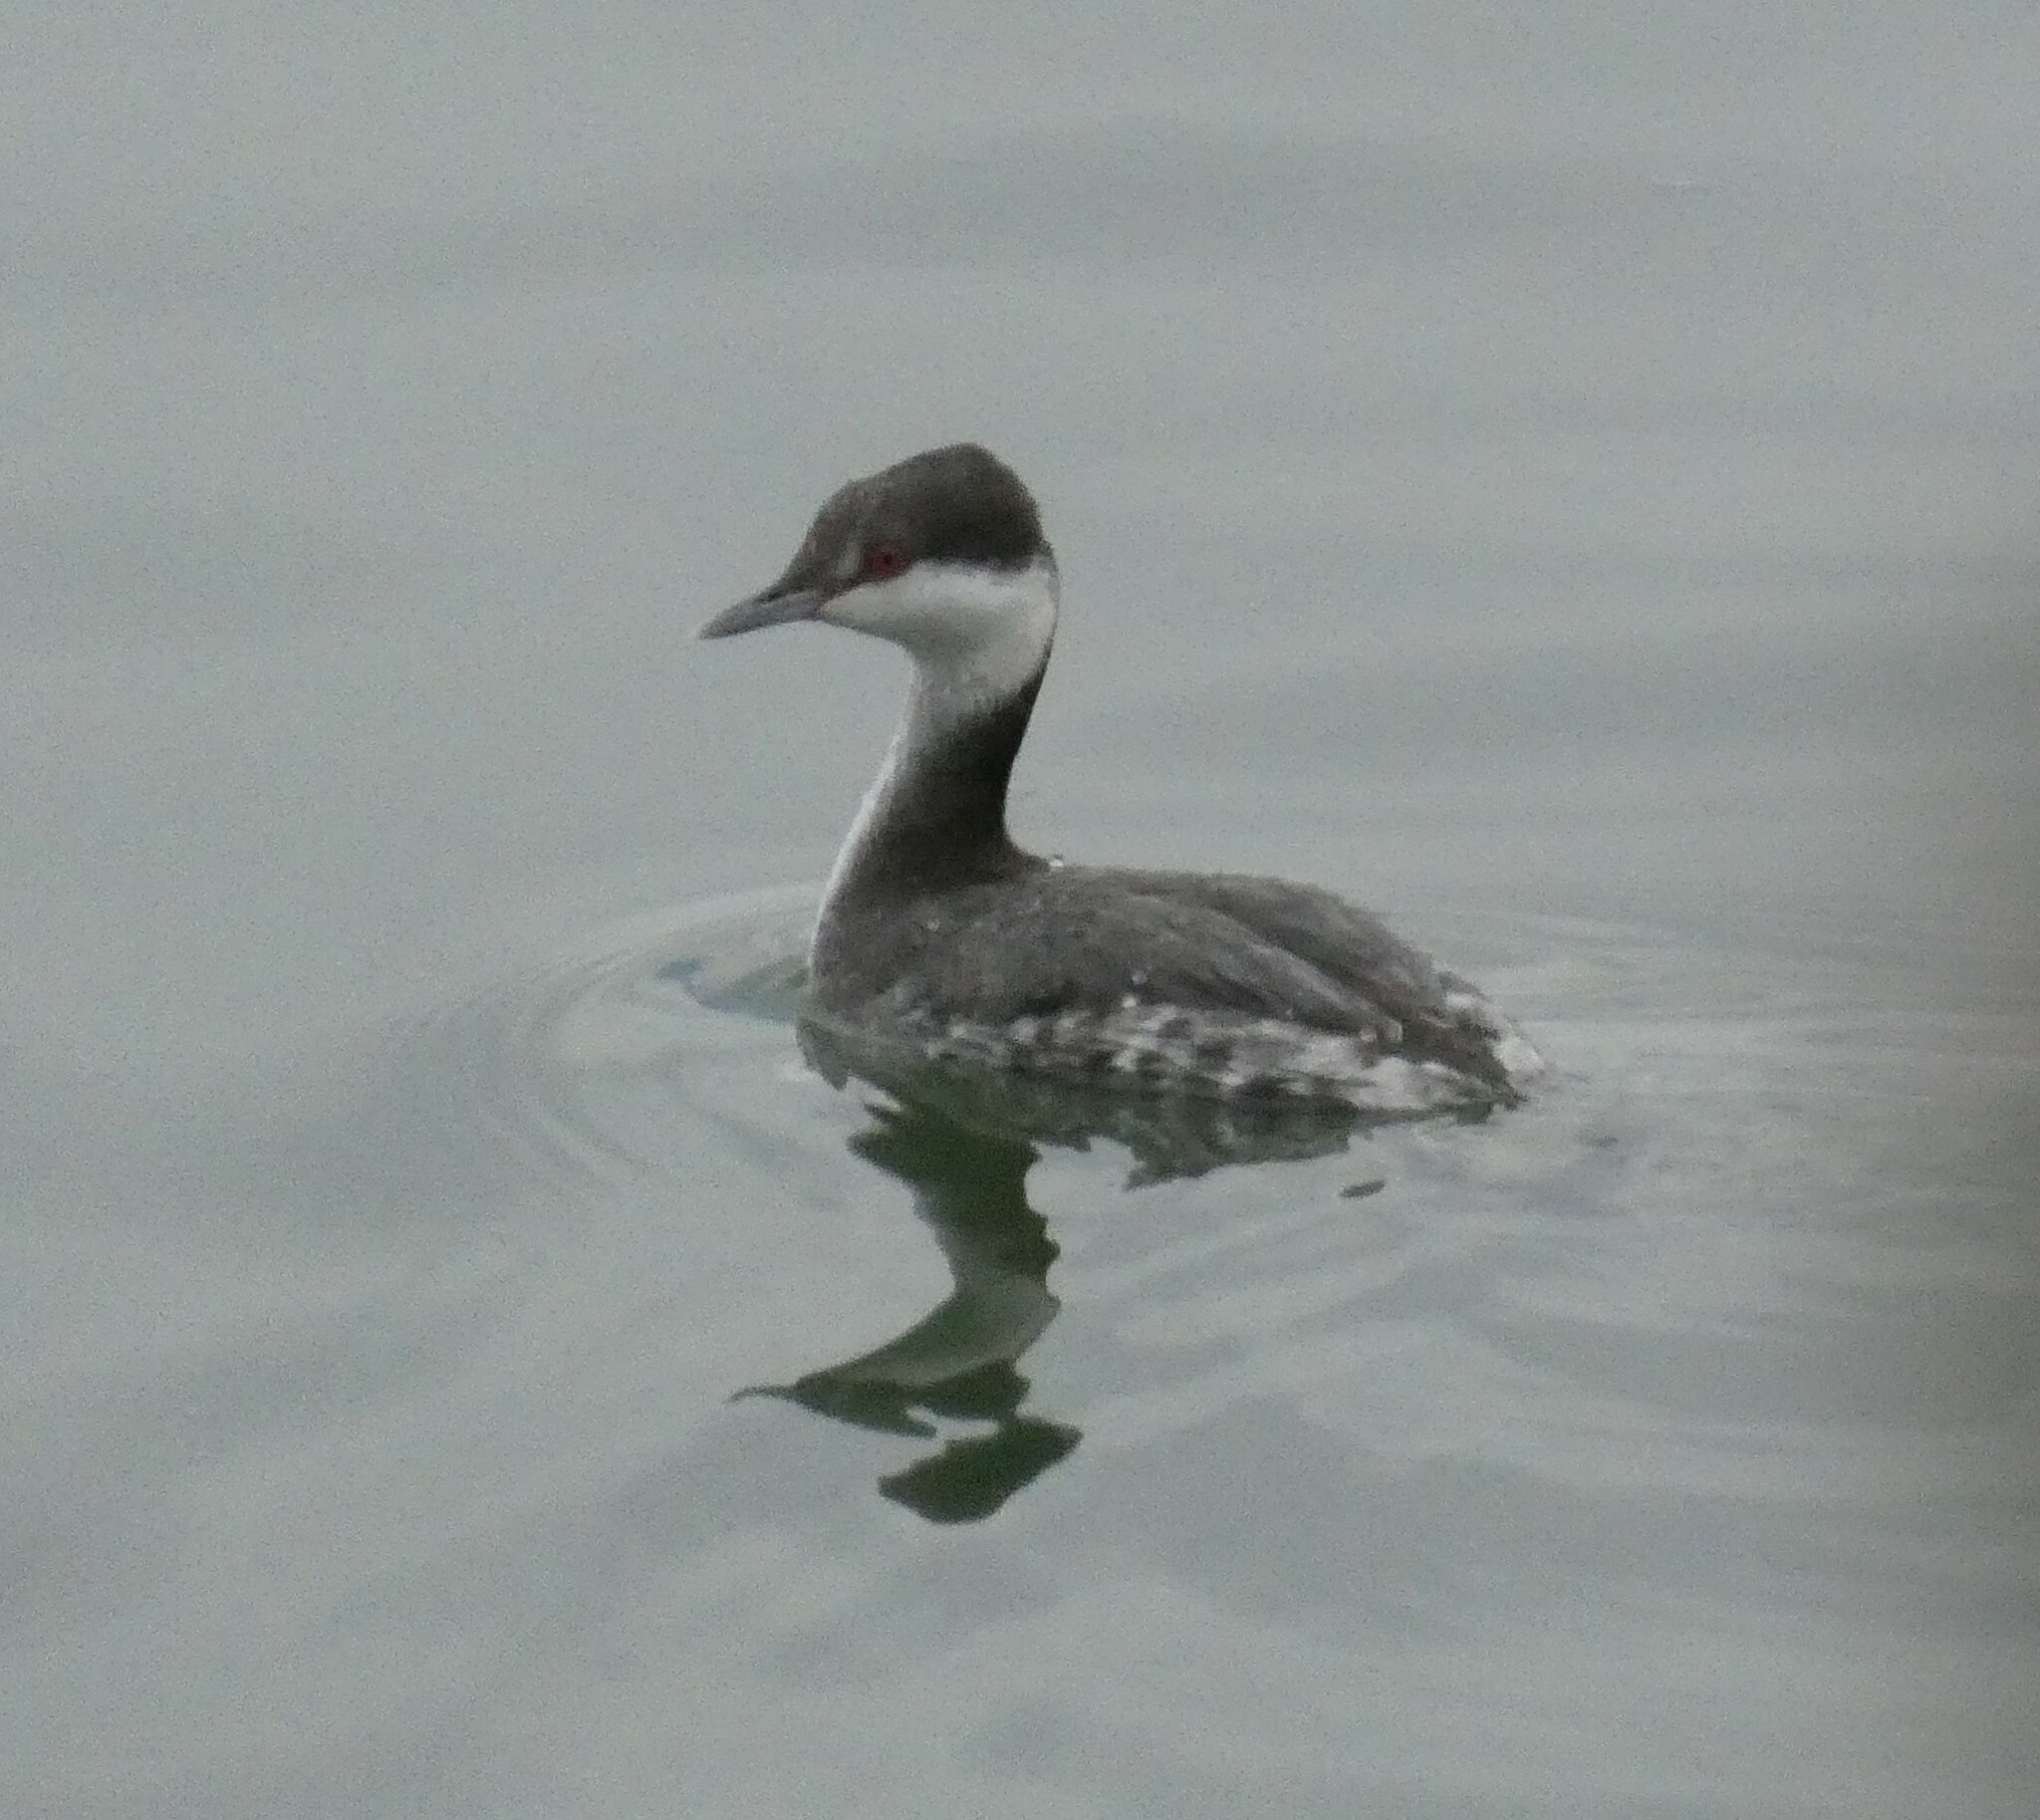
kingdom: Animalia
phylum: Chordata
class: Aves
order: Podicipediformes
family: Podicipedidae
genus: Podiceps
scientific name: Podiceps auritus
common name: Horned grebe
